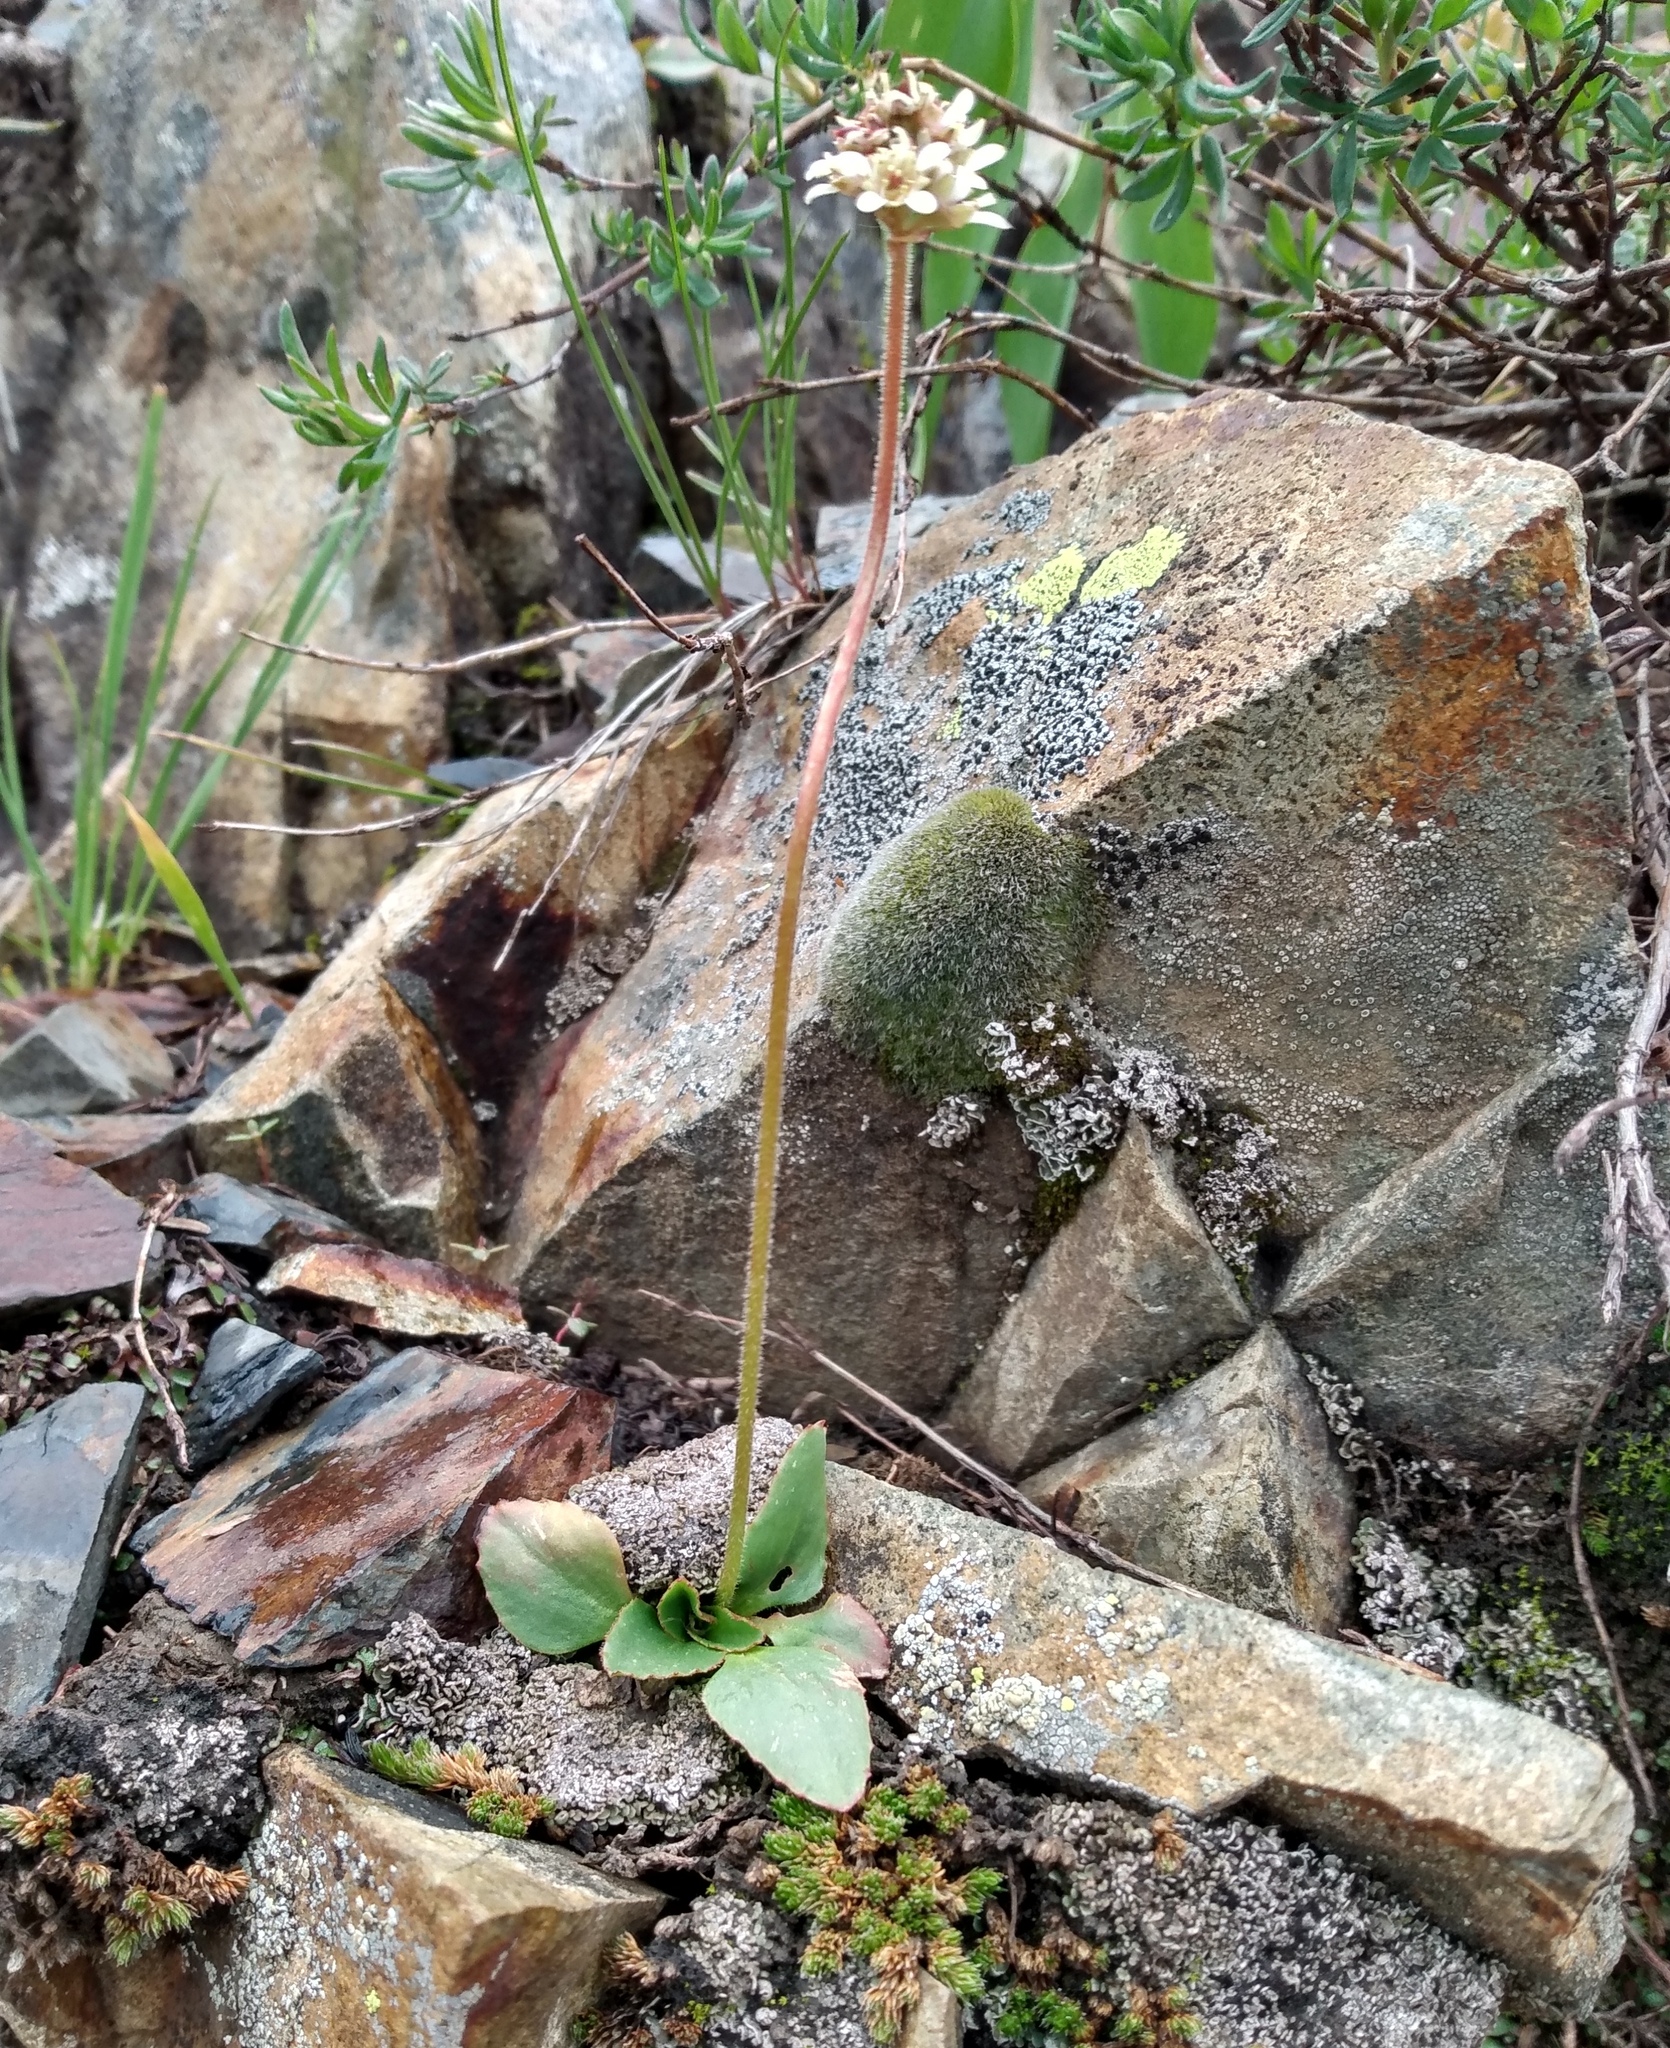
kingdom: Plantae
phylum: Tracheophyta
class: Magnoliopsida
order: Saxifragales
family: Saxifragaceae
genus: Micranthes
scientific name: Micranthes rhomboidea
